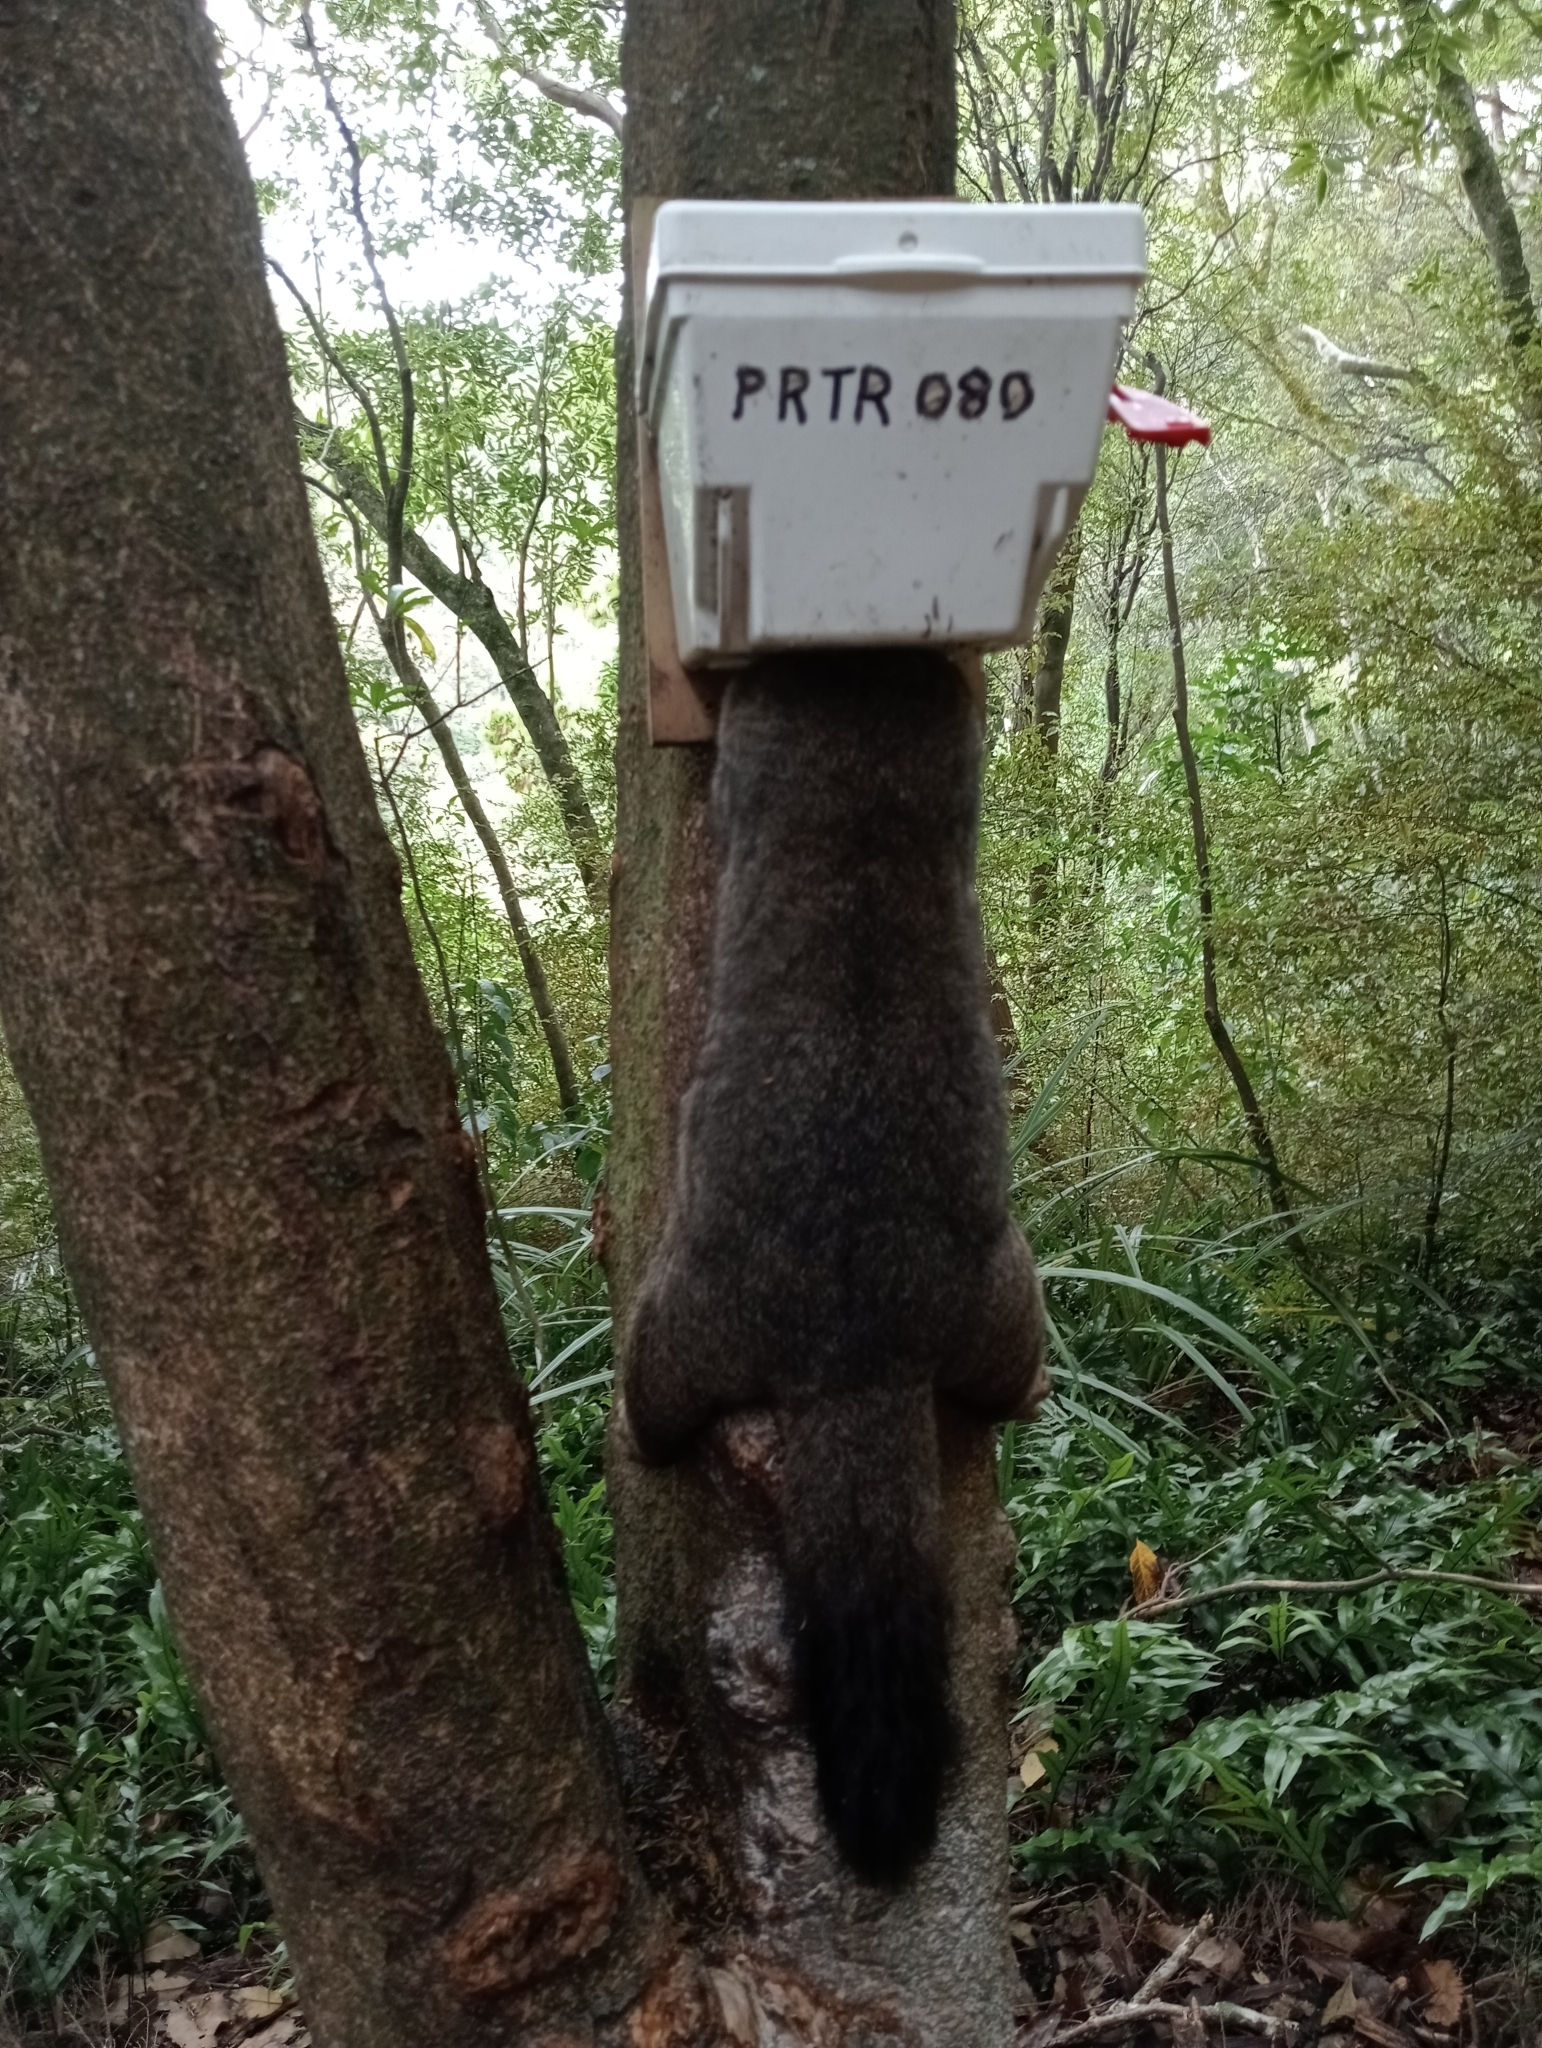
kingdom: Animalia
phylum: Chordata
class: Mammalia
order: Diprotodontia
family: Phalangeridae
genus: Trichosurus
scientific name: Trichosurus vulpecula
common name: Common brushtail
